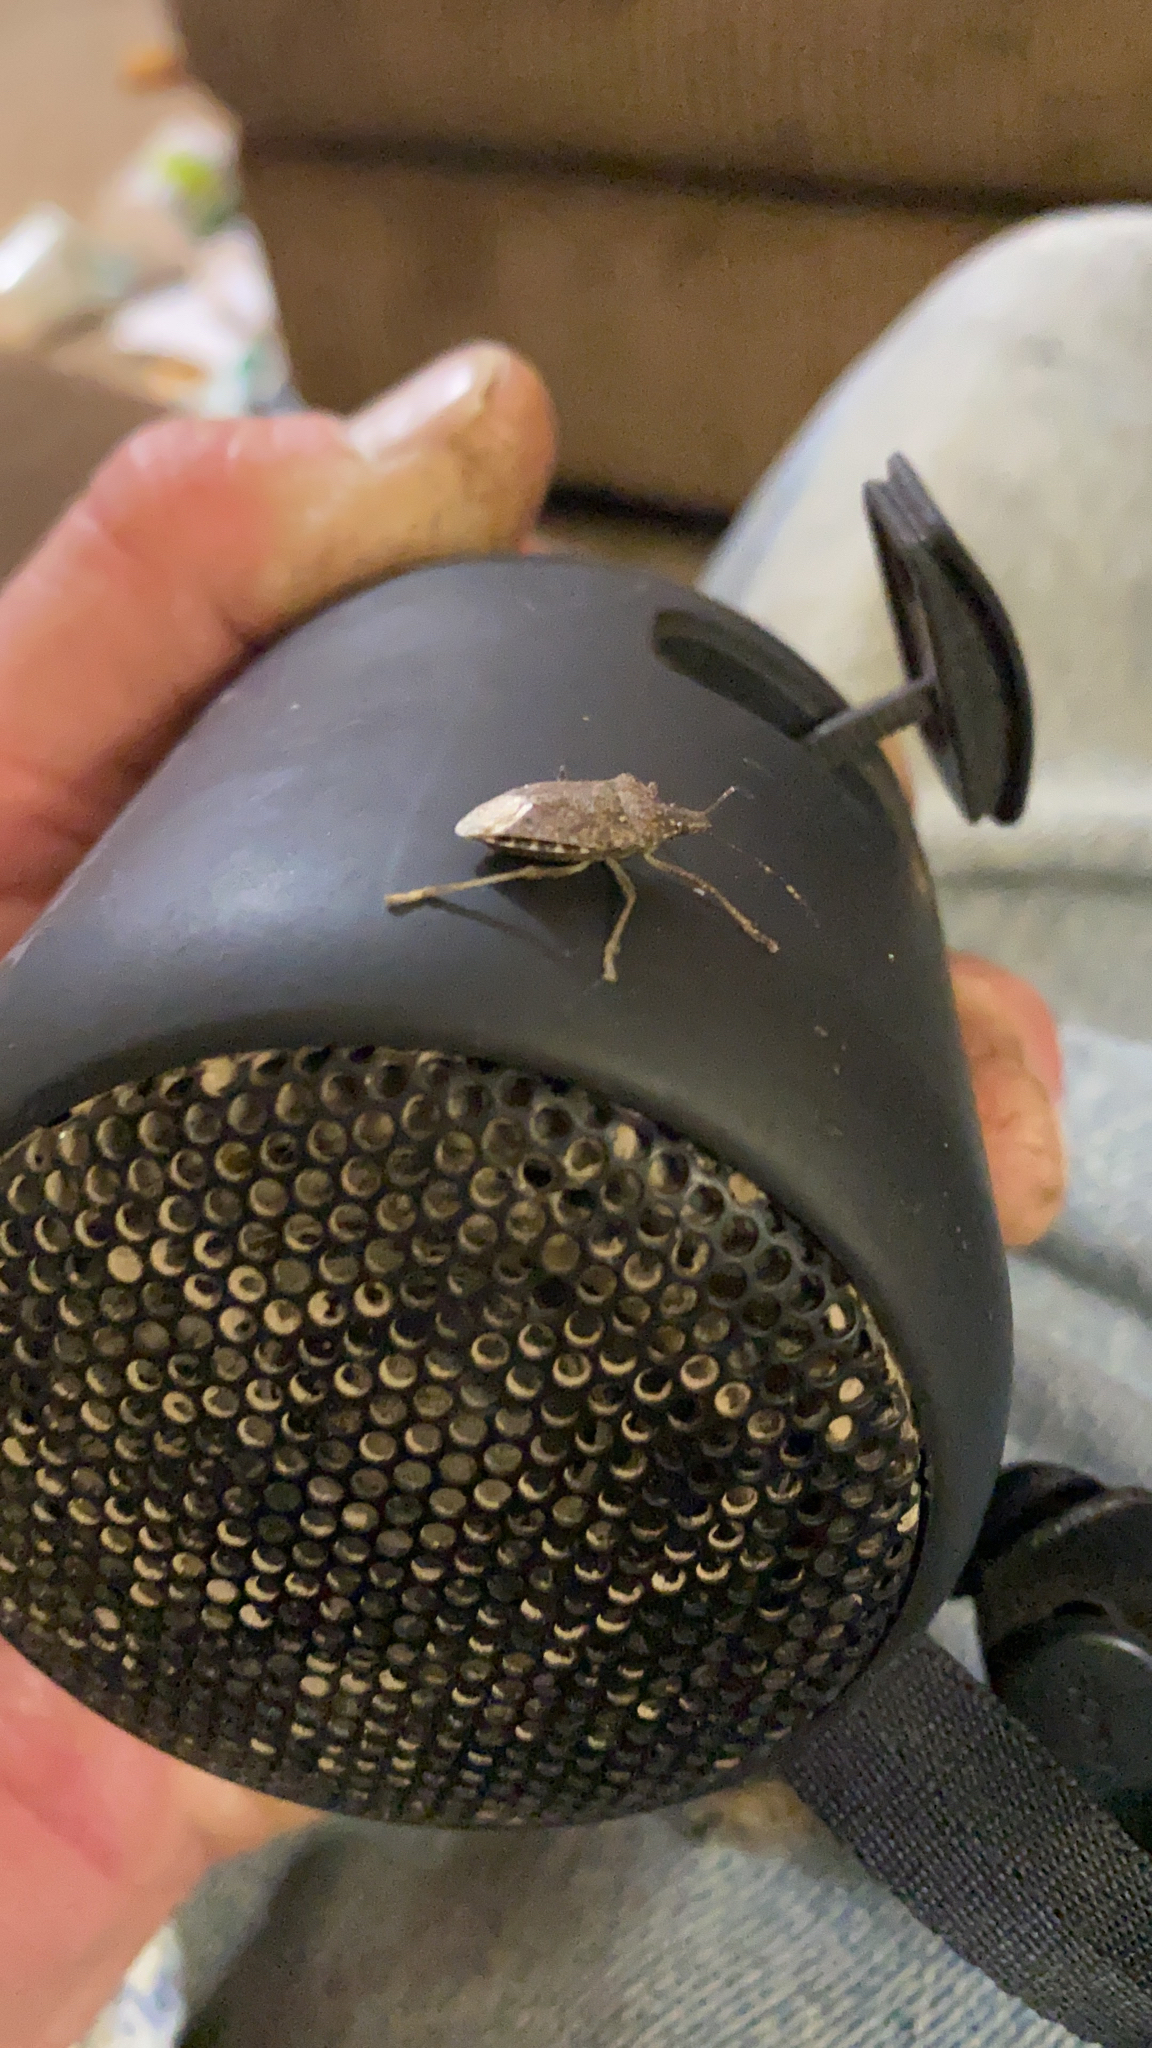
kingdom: Animalia
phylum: Arthropoda
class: Insecta
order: Hemiptera
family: Pentatomidae
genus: Halyomorpha
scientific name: Halyomorpha halys
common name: Brown marmorated stink bug
